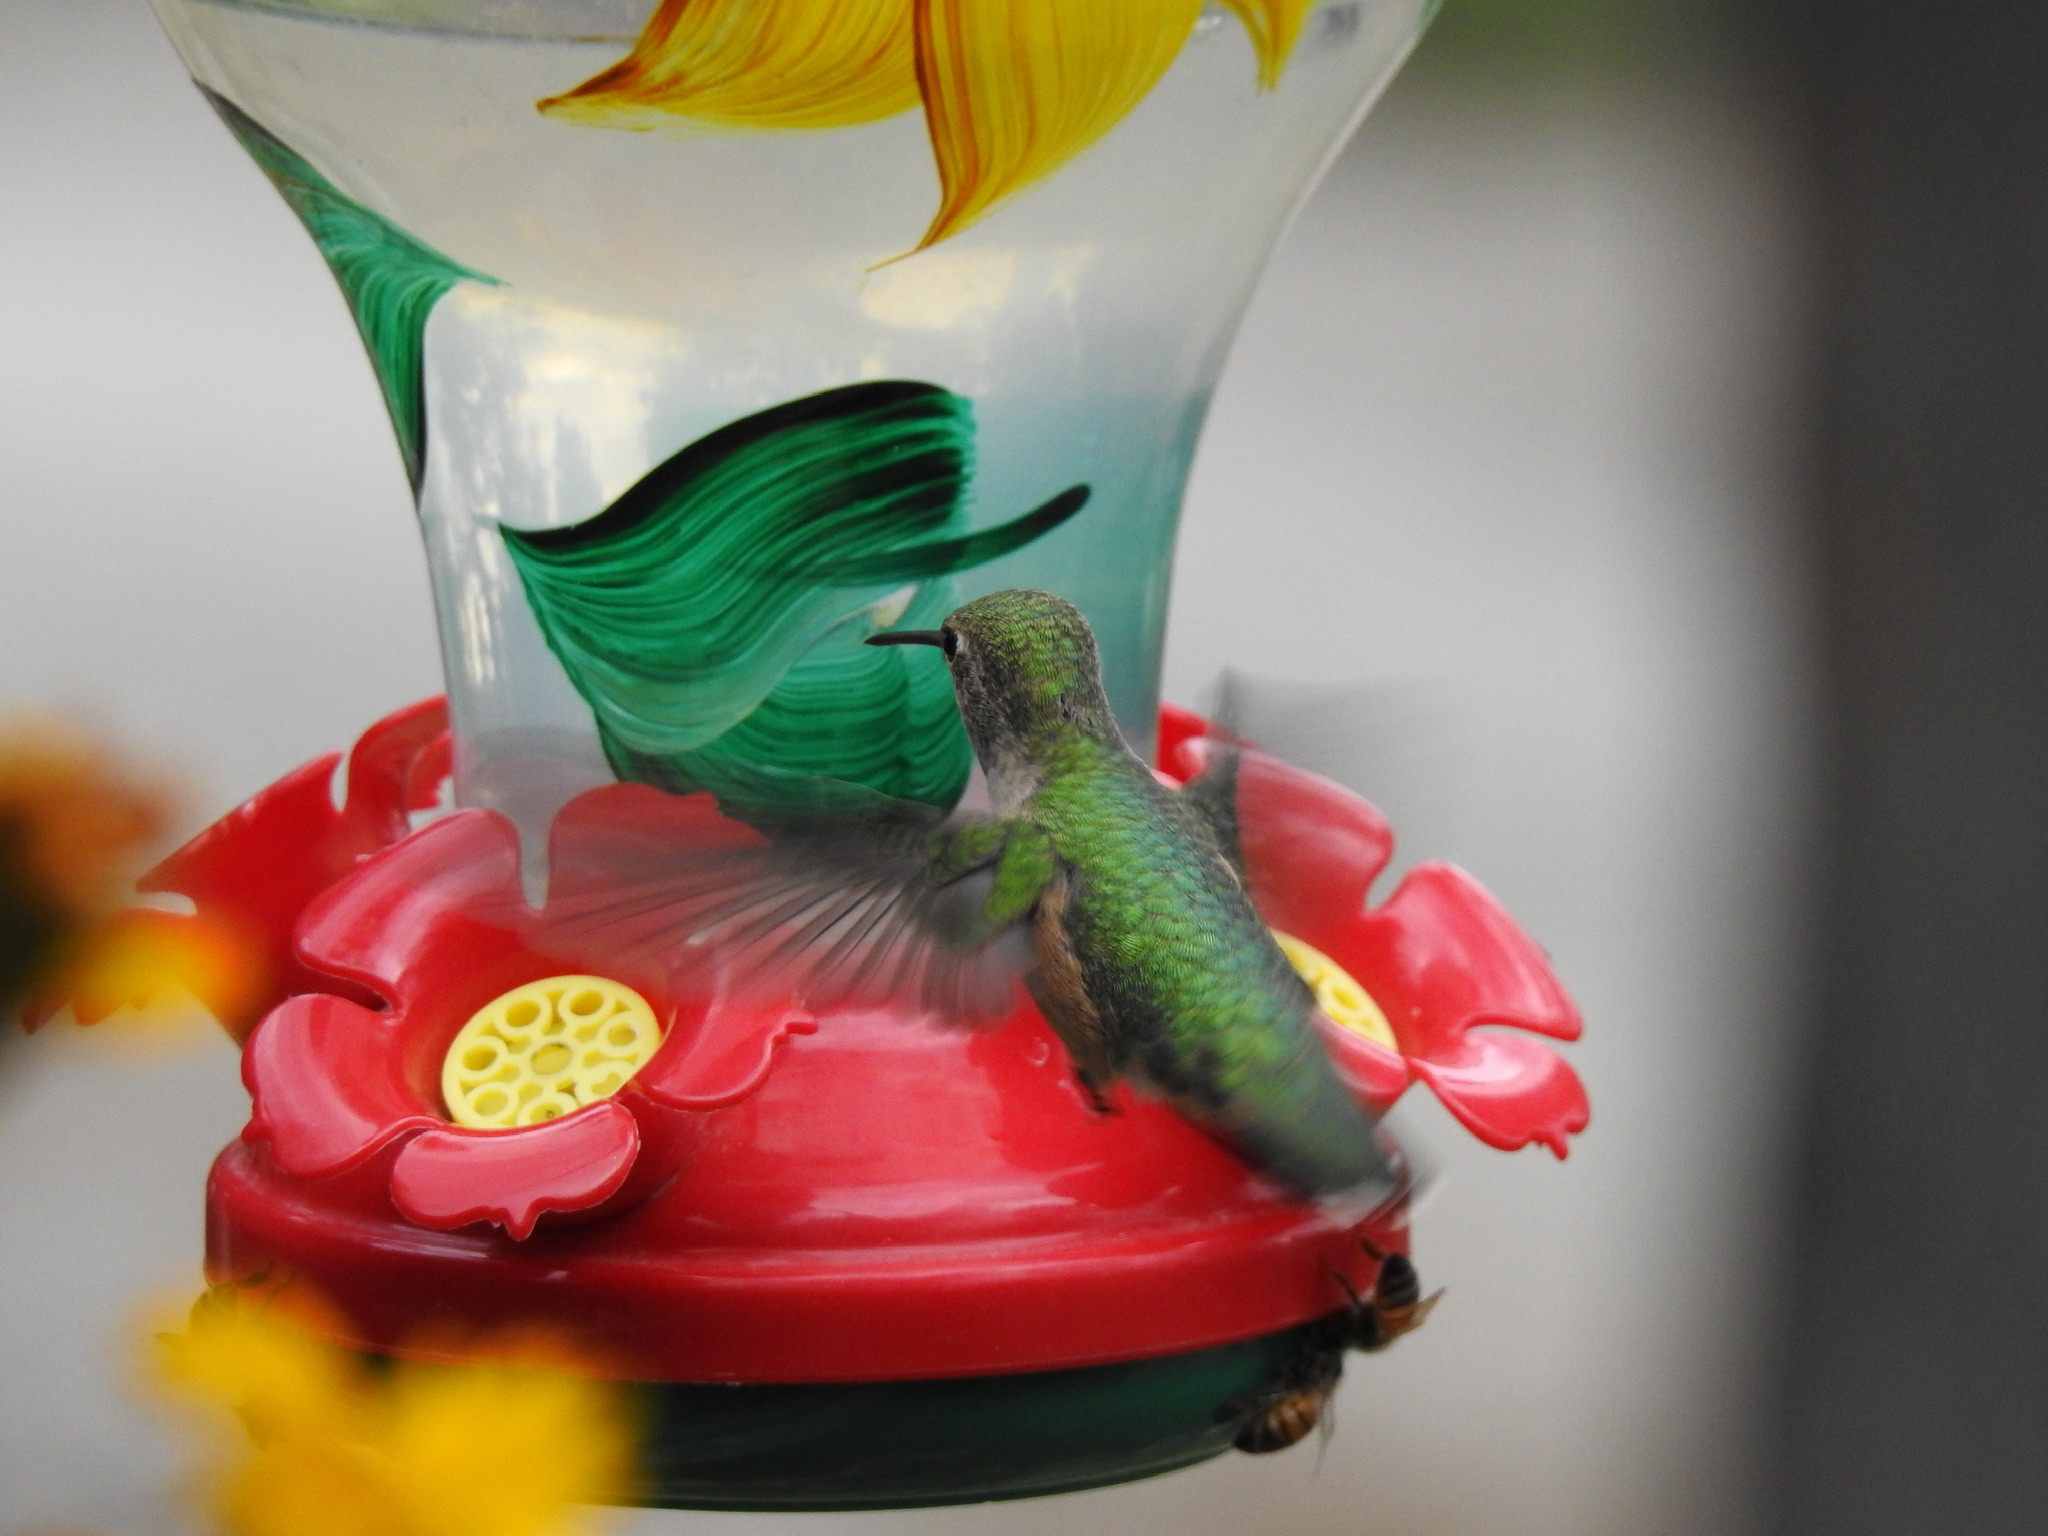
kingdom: Animalia
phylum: Chordata
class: Aves
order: Apodiformes
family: Trochilidae
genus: Selasphorus
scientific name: Selasphorus platycercus
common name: Broad-tailed hummingbird
